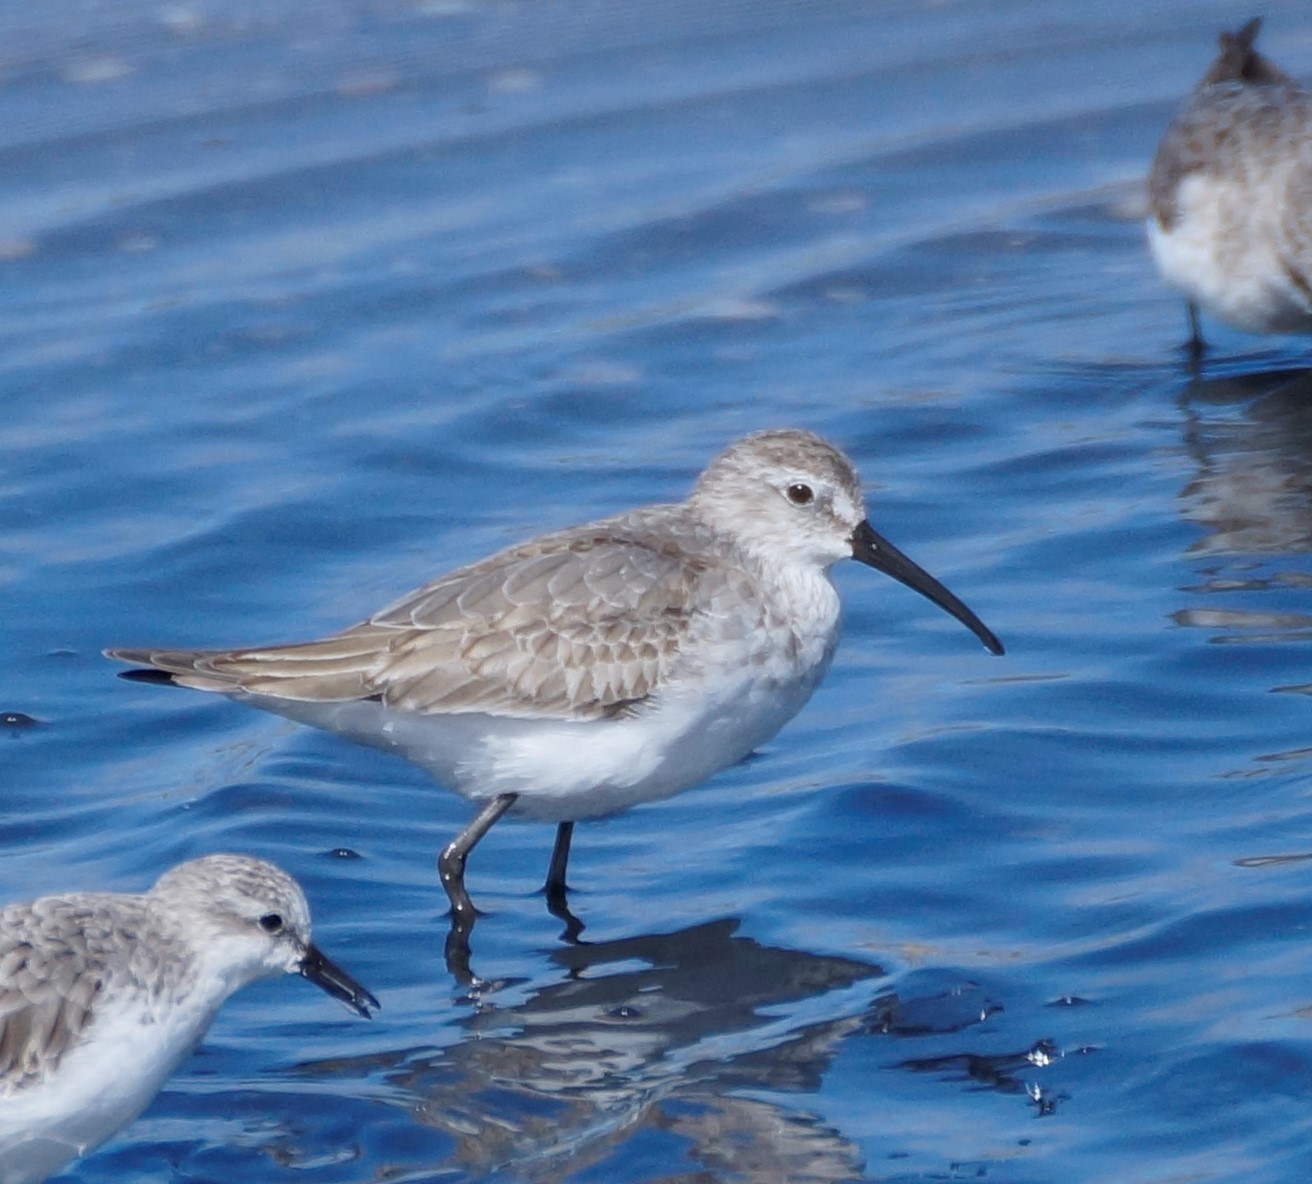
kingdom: Animalia
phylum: Chordata
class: Aves
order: Charadriiformes
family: Scolopacidae
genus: Calidris
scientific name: Calidris ferruginea
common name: Curlew sandpiper
